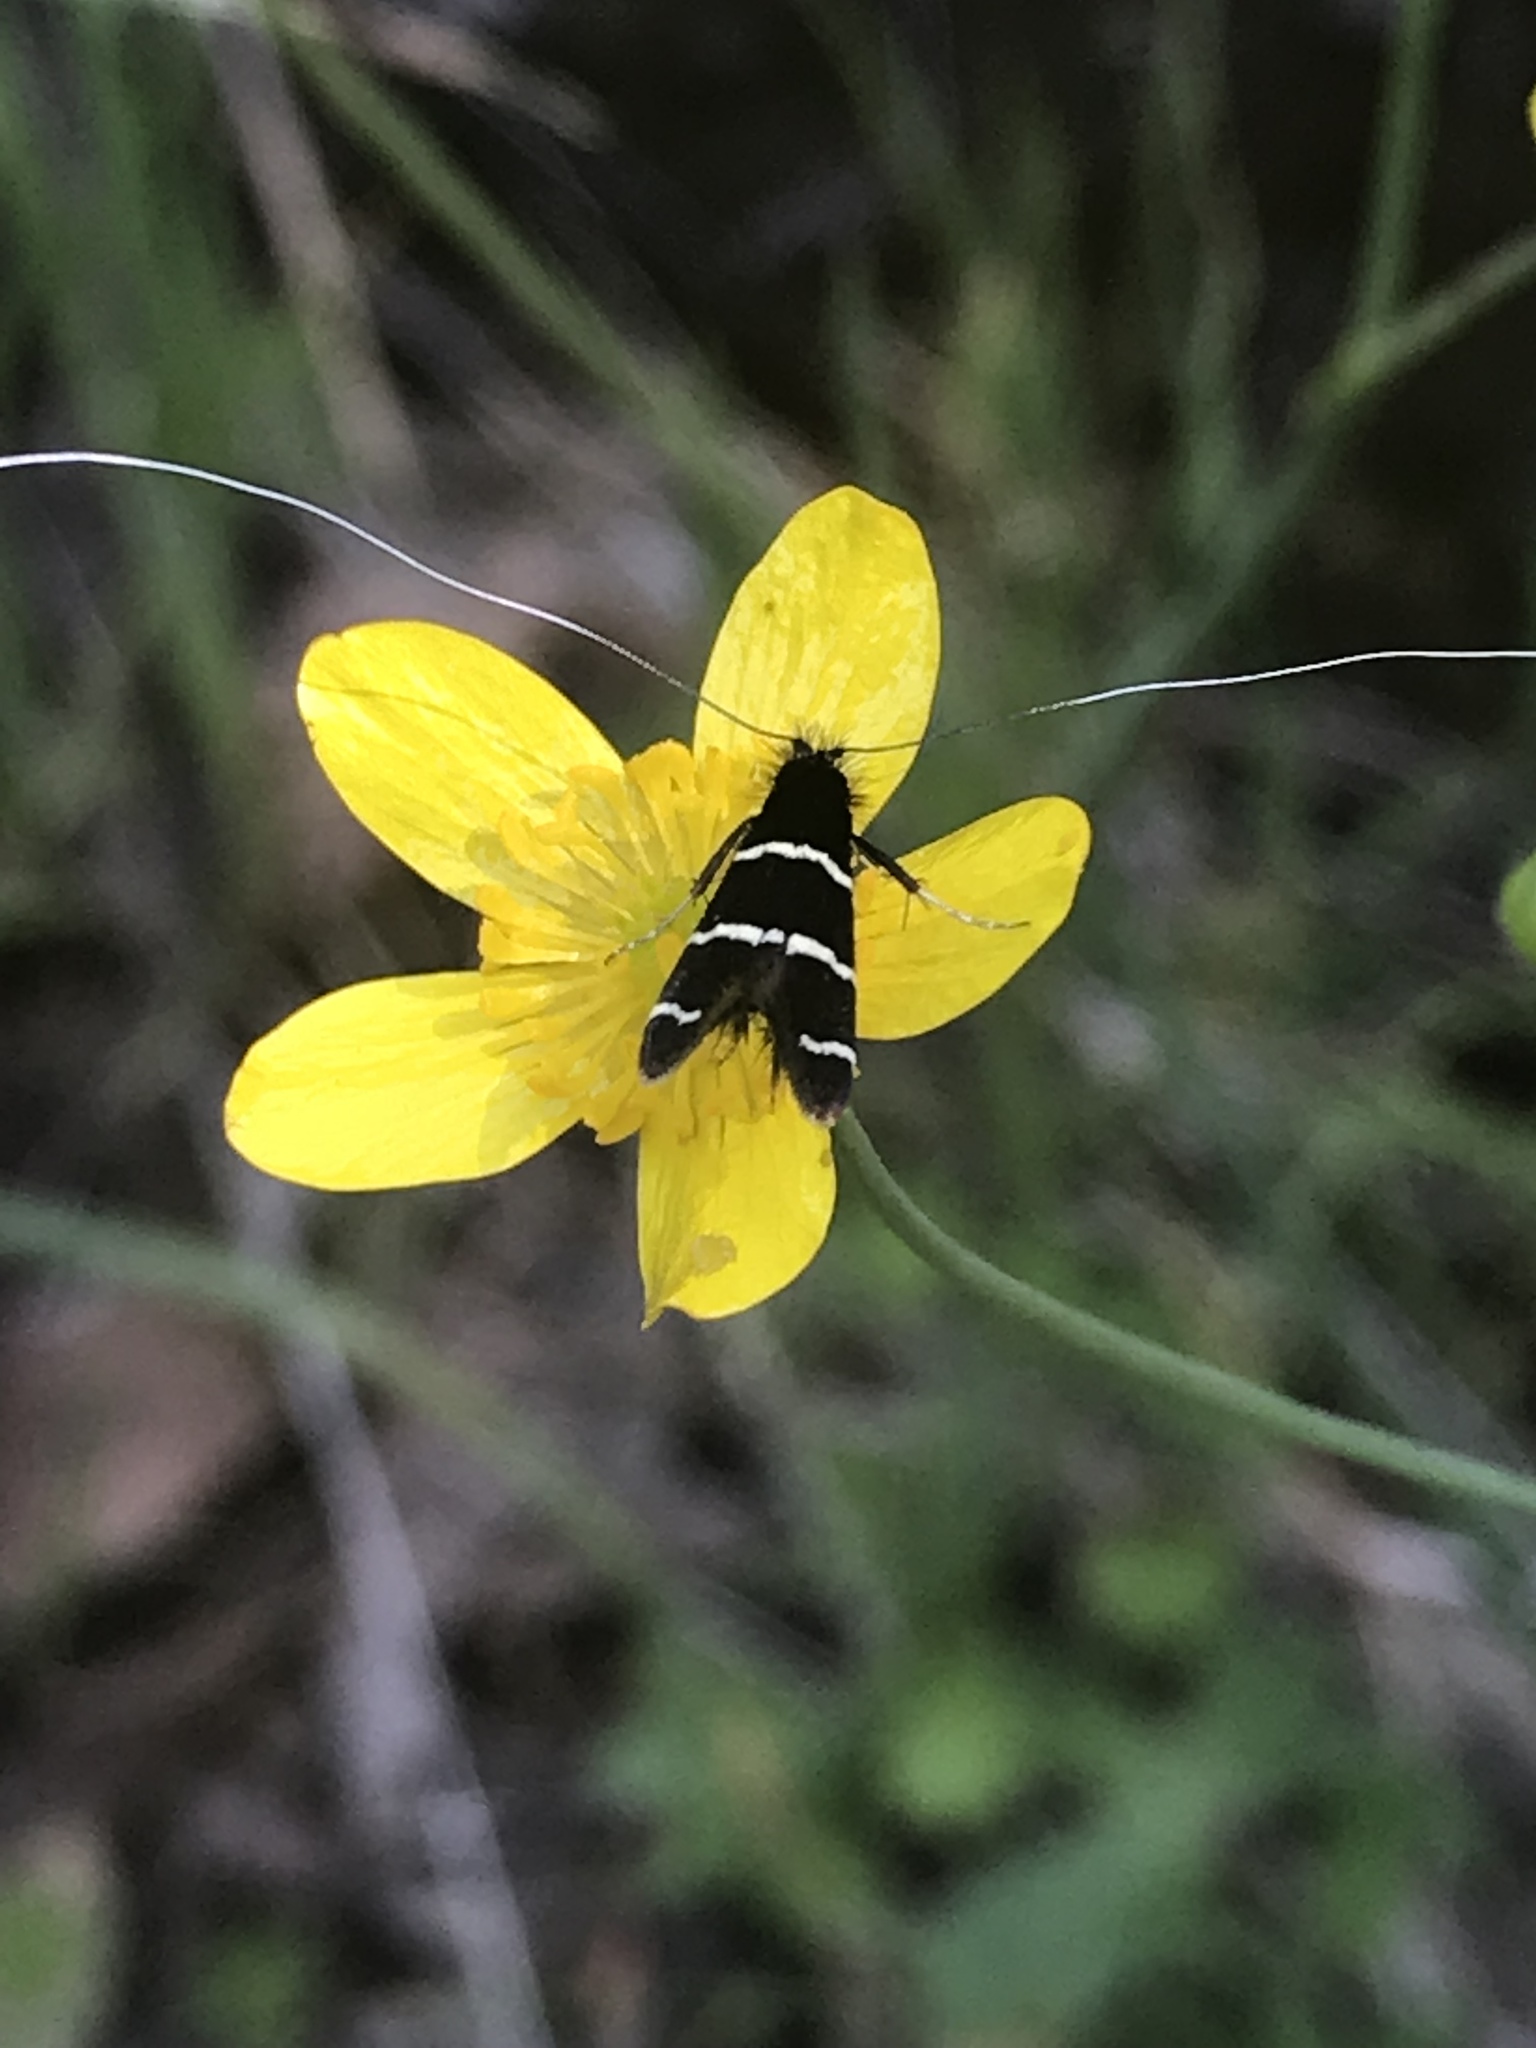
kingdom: Animalia
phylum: Arthropoda
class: Insecta
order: Lepidoptera
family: Adelidae
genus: Adela
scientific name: Adela trigrapha
